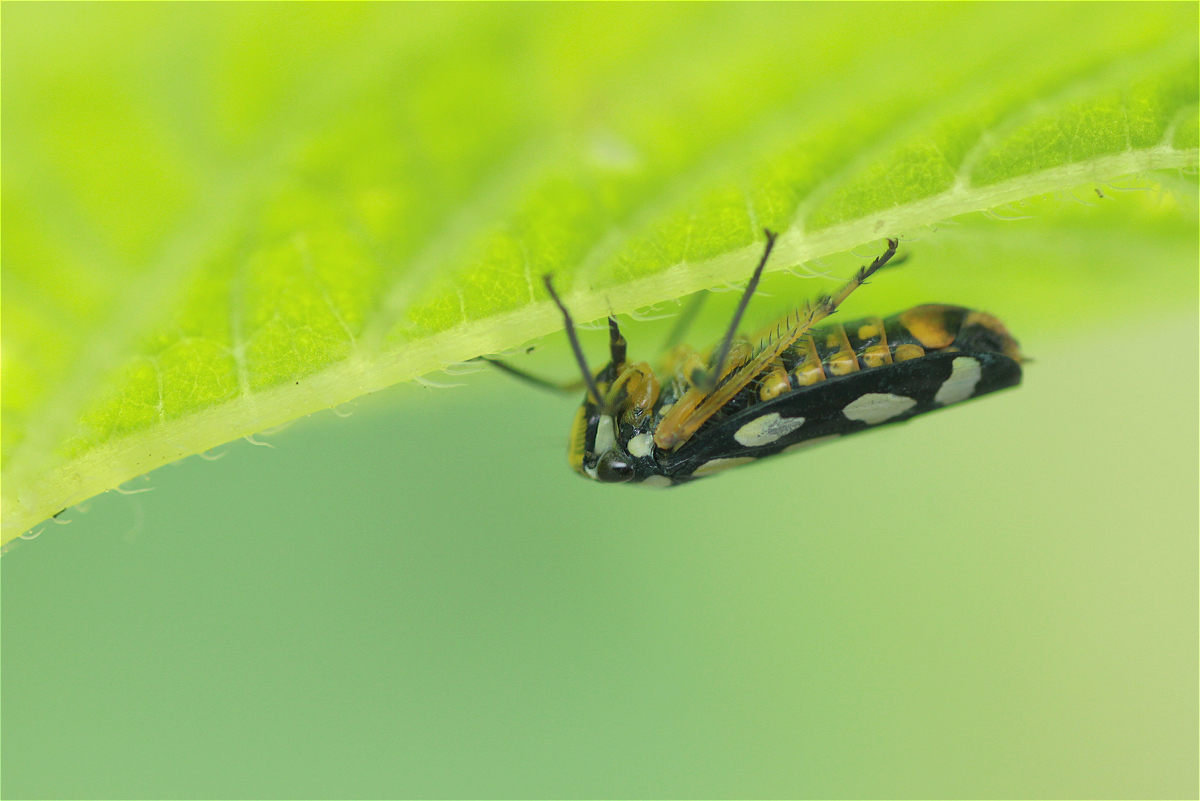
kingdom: Animalia
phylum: Arthropoda
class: Insecta
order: Hemiptera
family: Cicadellidae
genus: Stehlikiana
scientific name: Stehlikiana crassa
